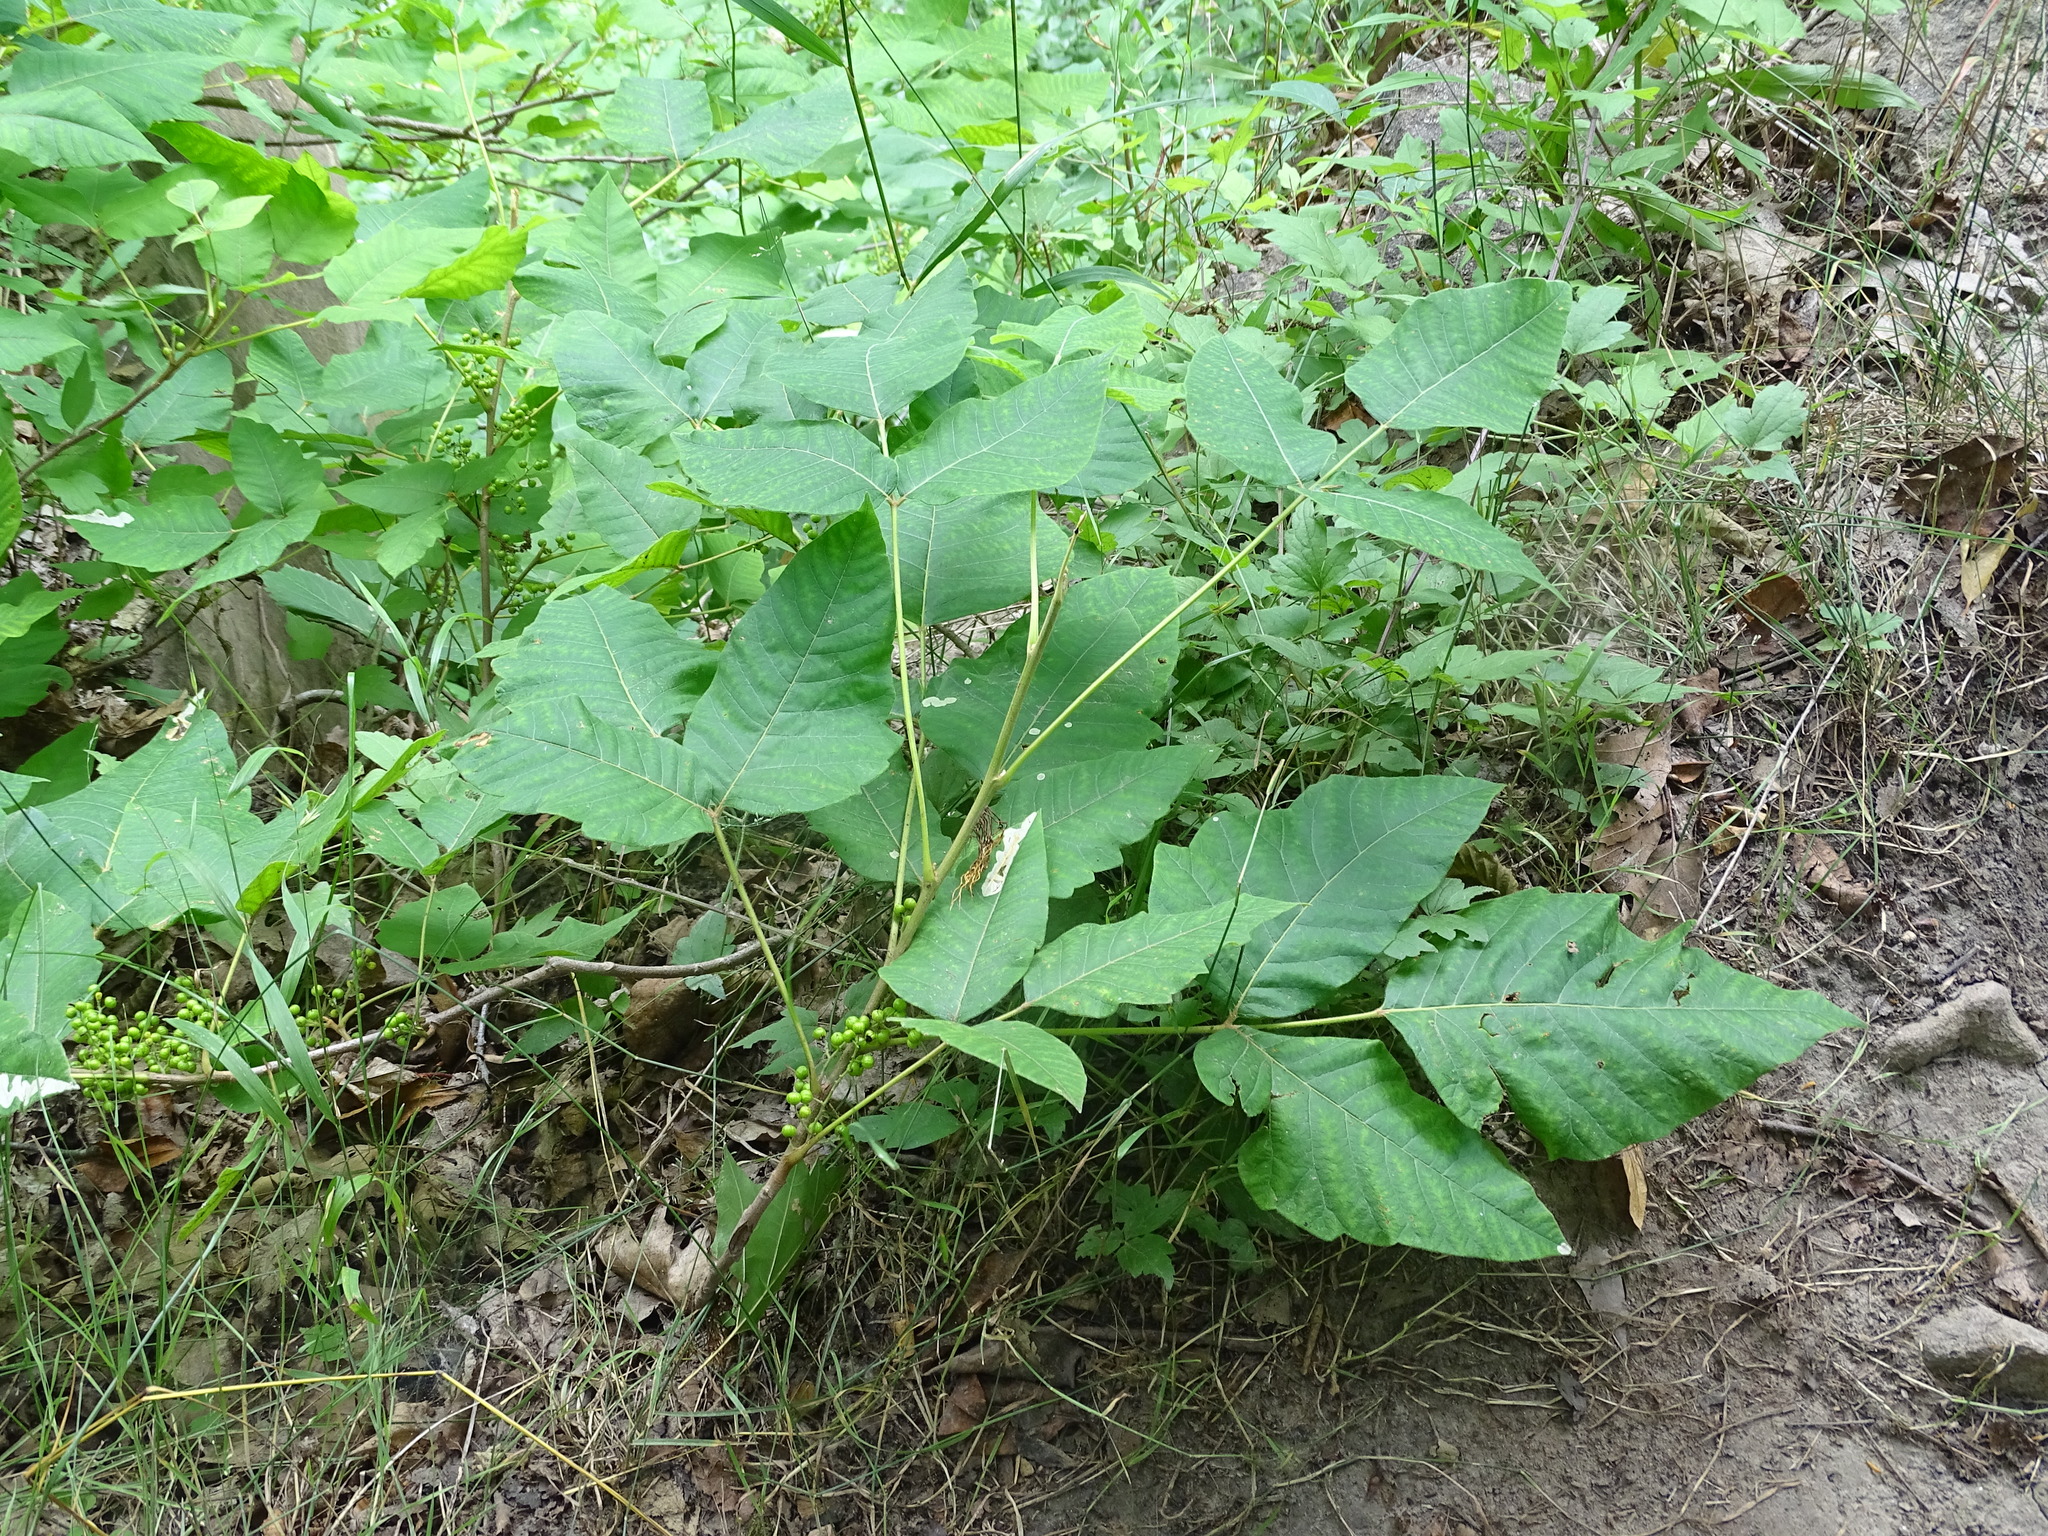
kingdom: Plantae
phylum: Tracheophyta
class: Magnoliopsida
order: Sapindales
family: Anacardiaceae
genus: Toxicodendron
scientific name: Toxicodendron rydbergii
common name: Rydberg's poison-ivy
